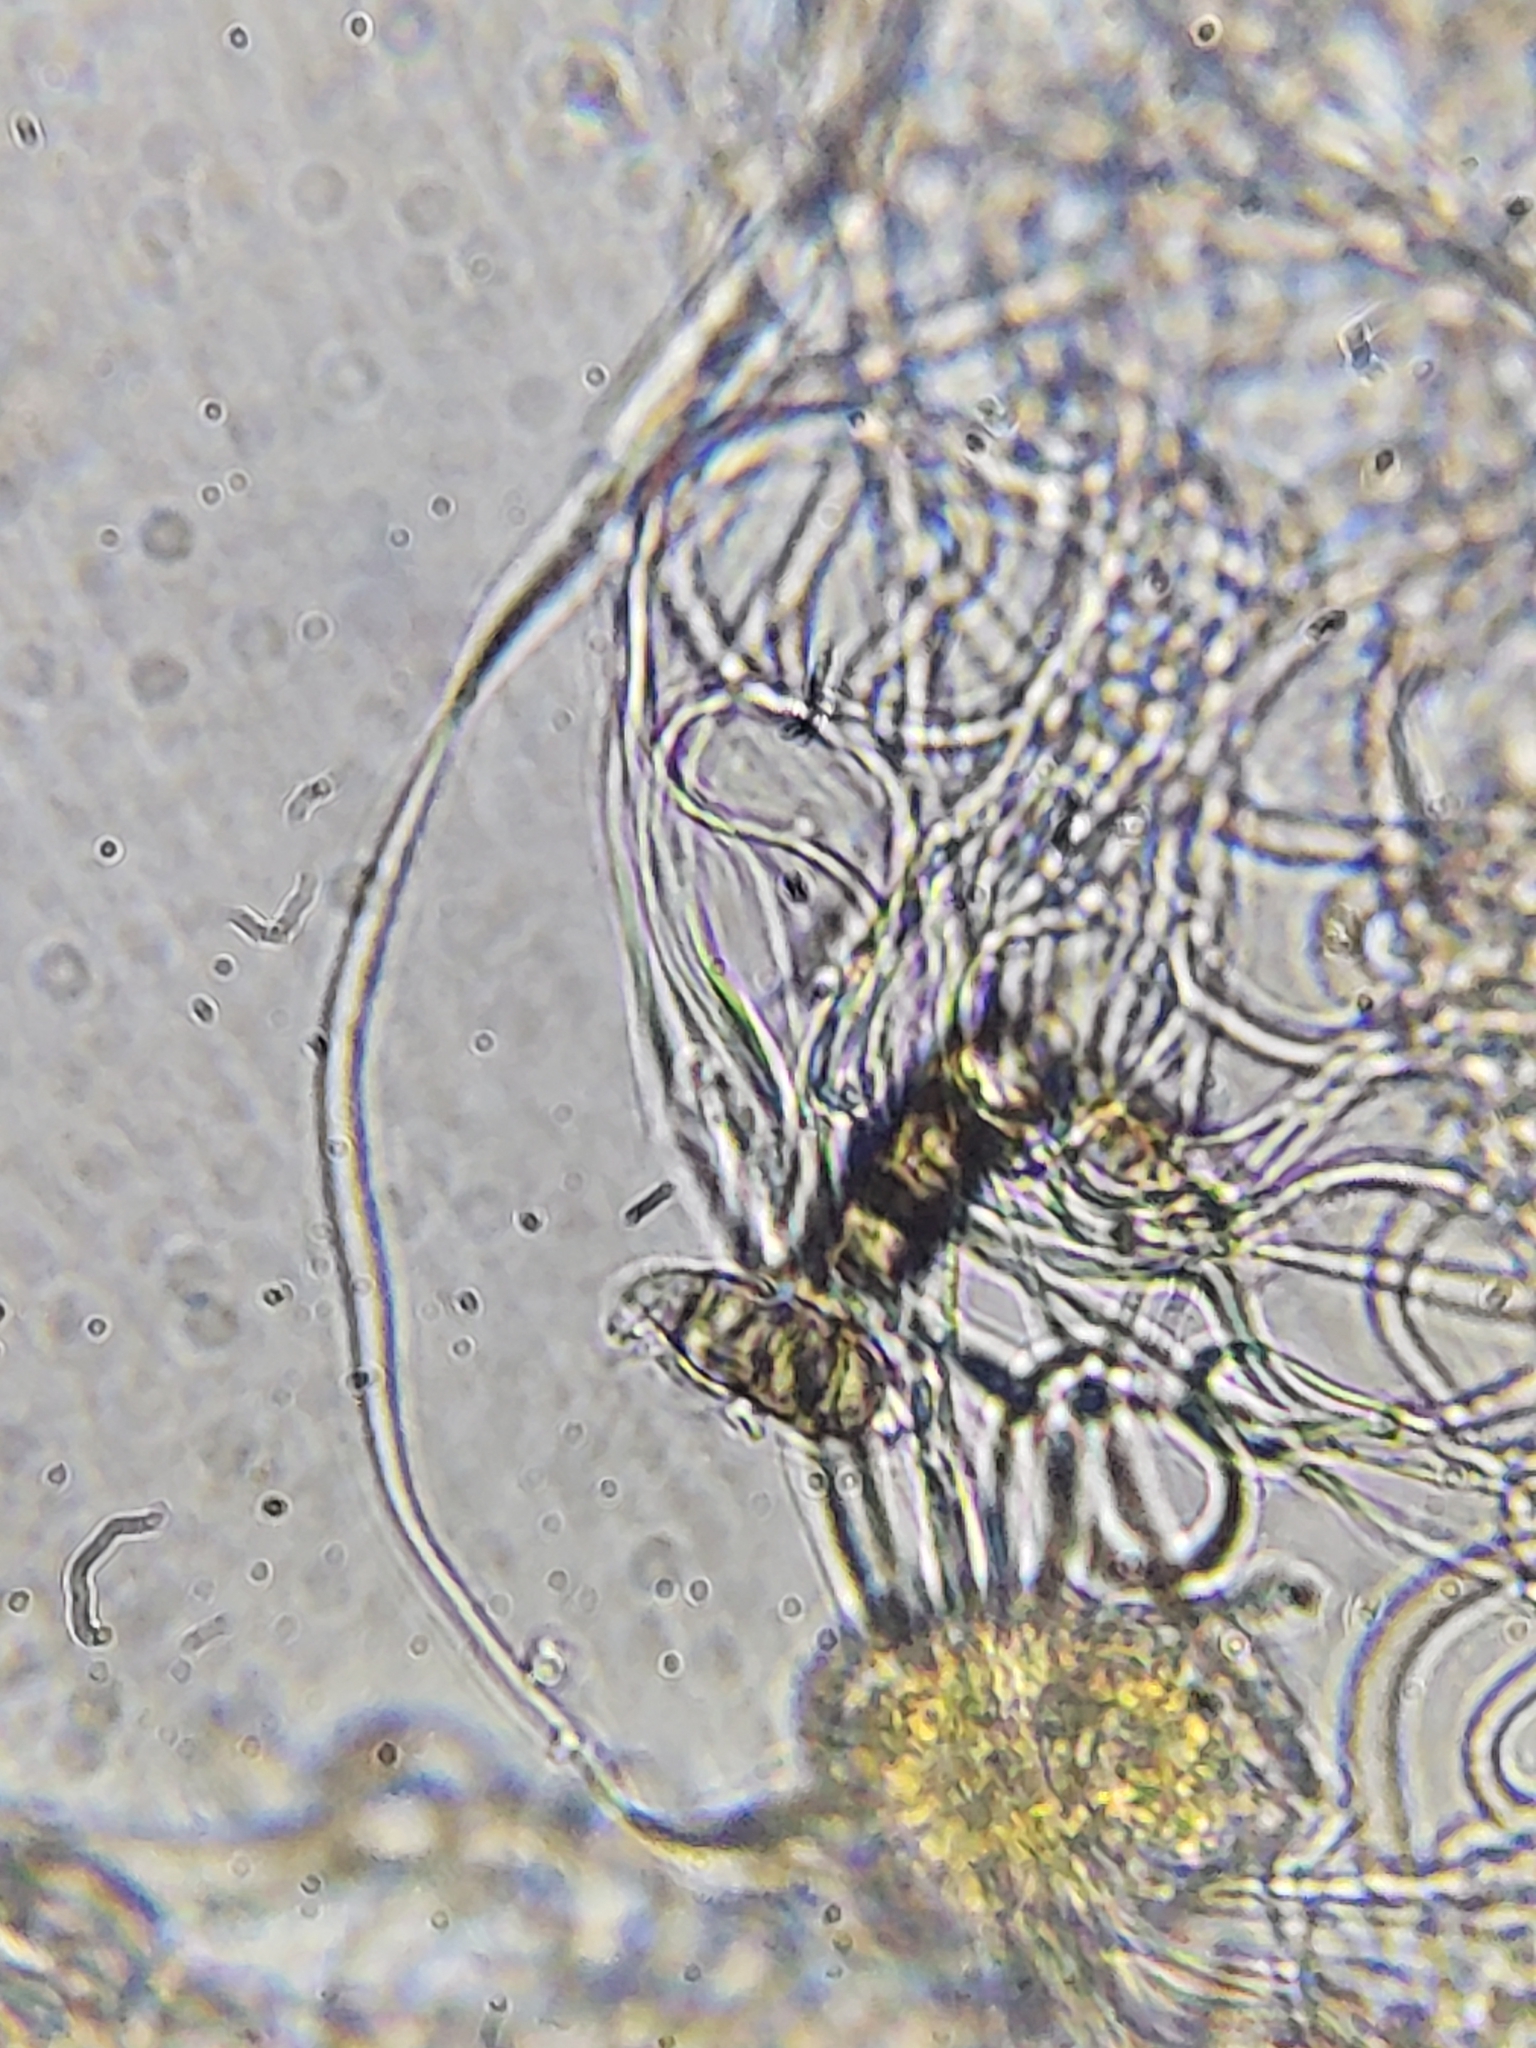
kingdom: Fungi
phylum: Basidiomycota
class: Pucciniomycetes
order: Pucciniales
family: Coleosporiaceae
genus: Coleosporium
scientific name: Coleosporium elephantopodis
